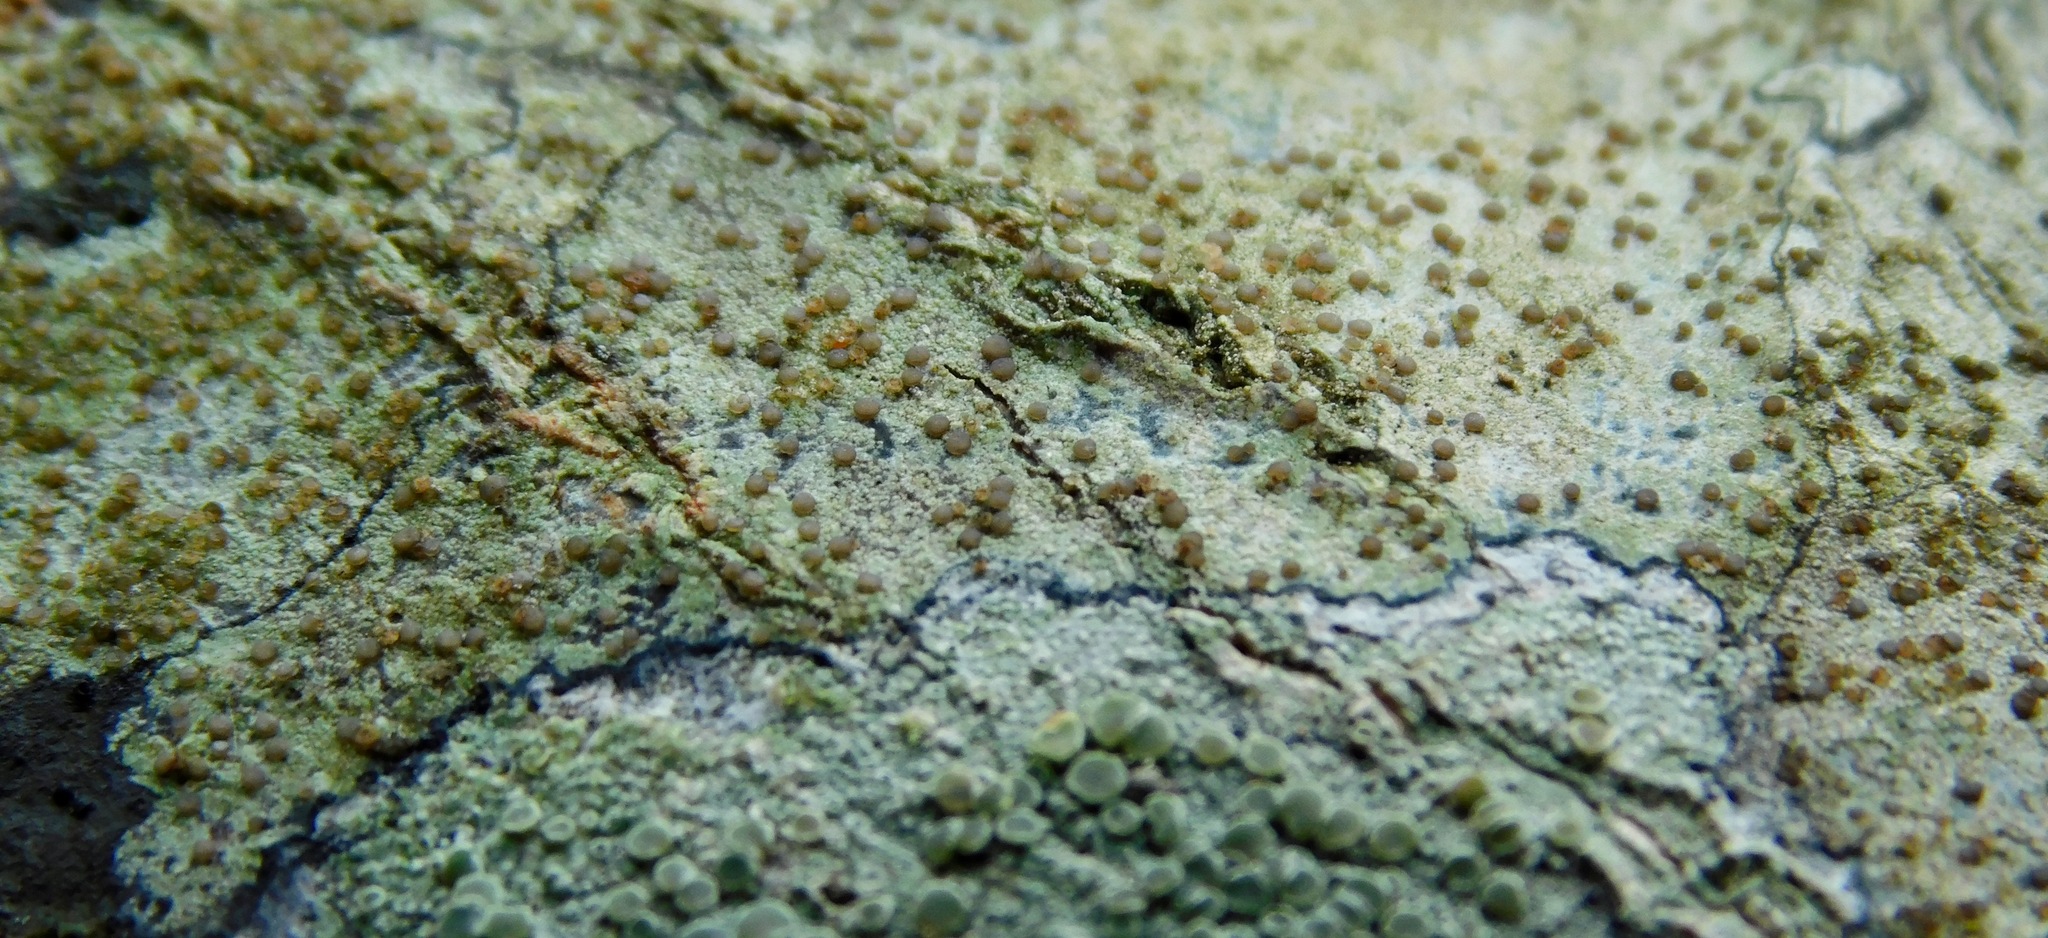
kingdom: Fungi
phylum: Ascomycota
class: Lecanoromycetes
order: Lecanorales
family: Lecanoraceae
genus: Traponora
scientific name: Traponora varians
